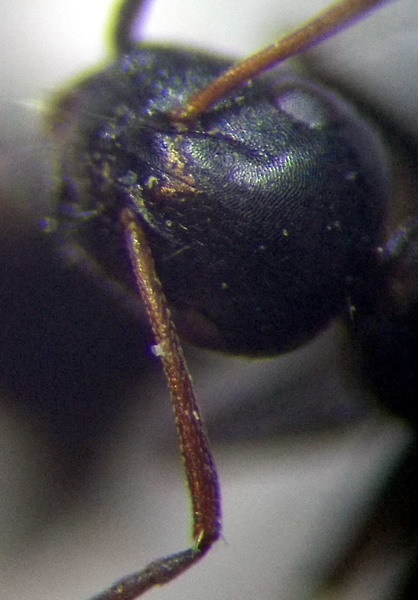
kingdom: Animalia
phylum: Arthropoda
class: Insecta
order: Hymenoptera
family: Formicidae
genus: Camponotus
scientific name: Camponotus piceus
